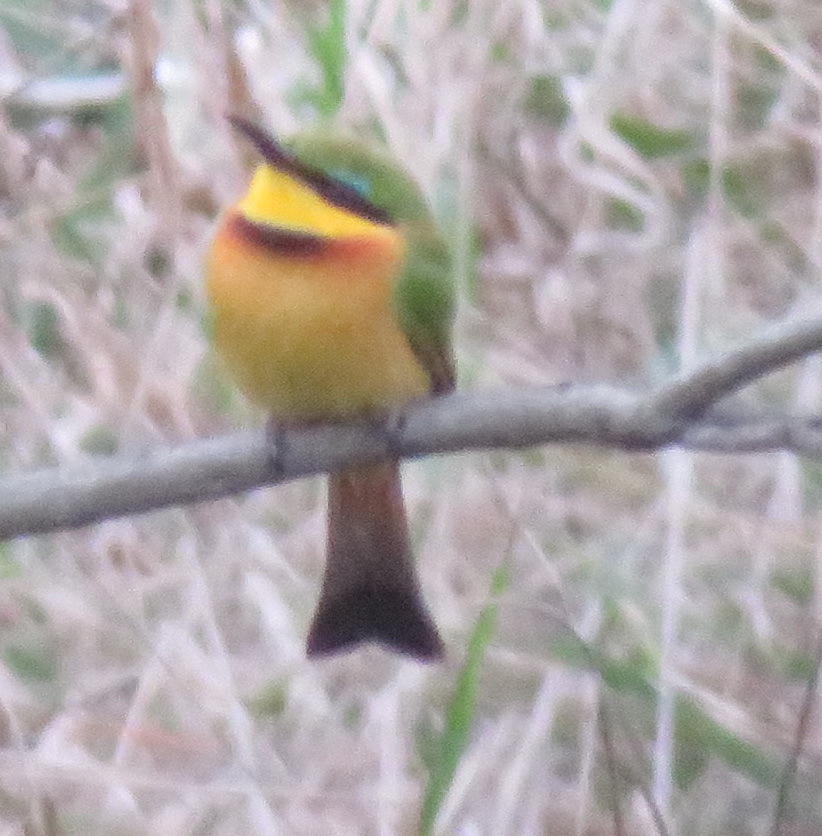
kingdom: Animalia
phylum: Chordata
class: Aves
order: Coraciiformes
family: Meropidae
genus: Merops
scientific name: Merops pusillus
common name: Little bee-eater
